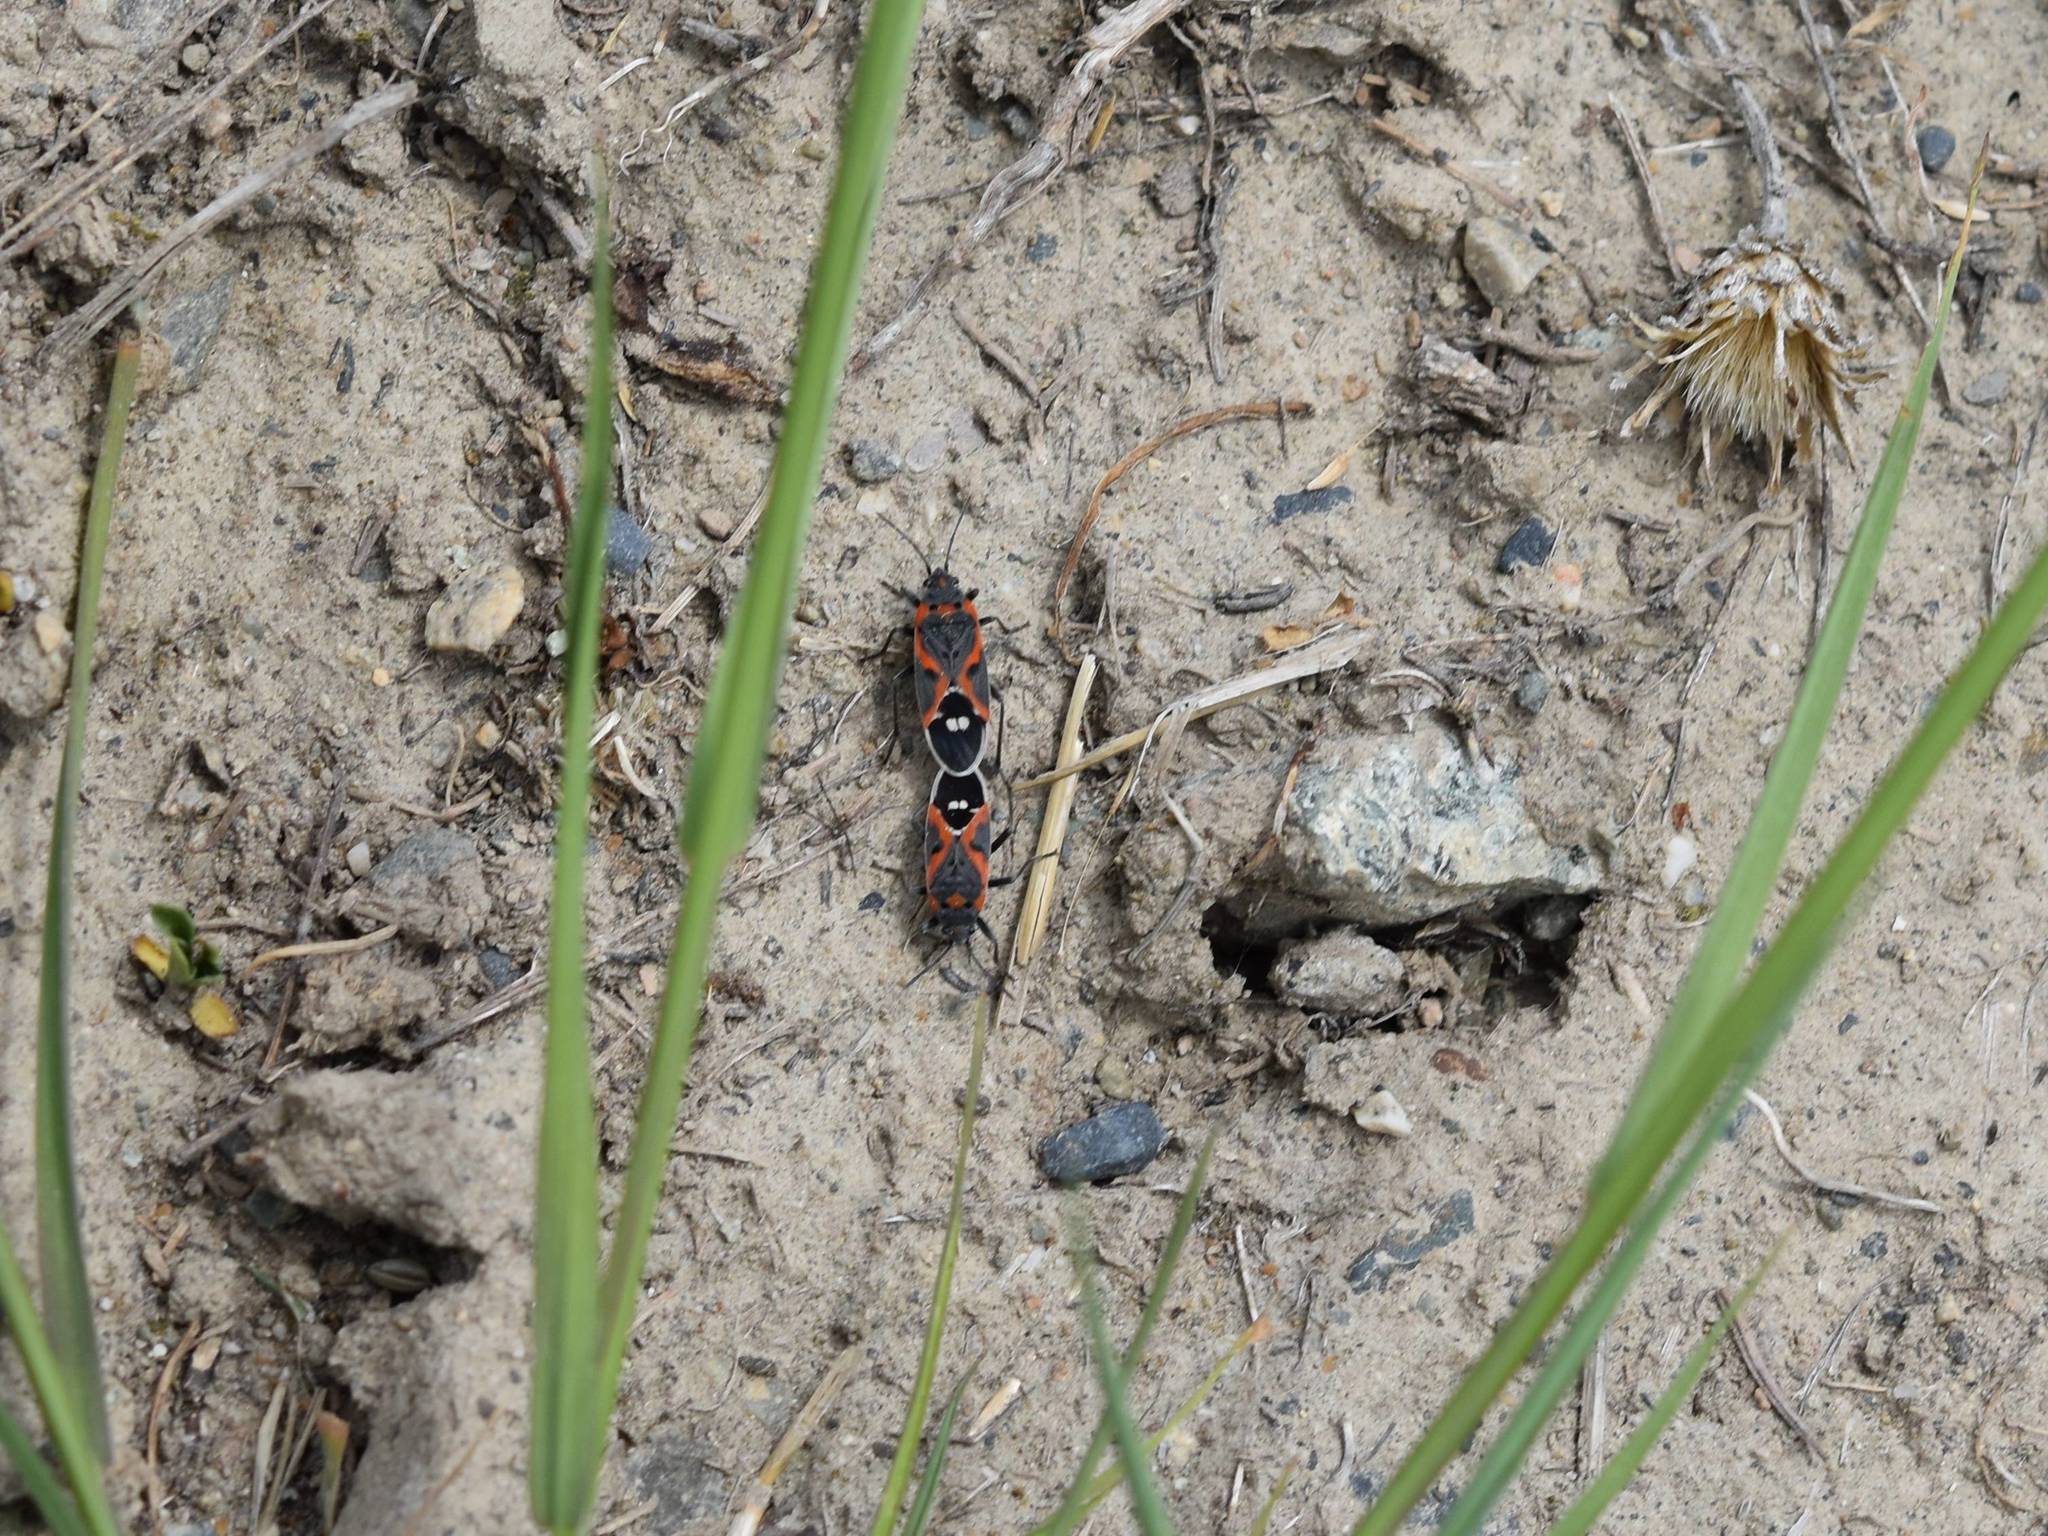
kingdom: Animalia
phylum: Arthropoda
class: Insecta
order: Hemiptera
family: Lygaeidae
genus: Lygaeus
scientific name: Lygaeus kalmii
